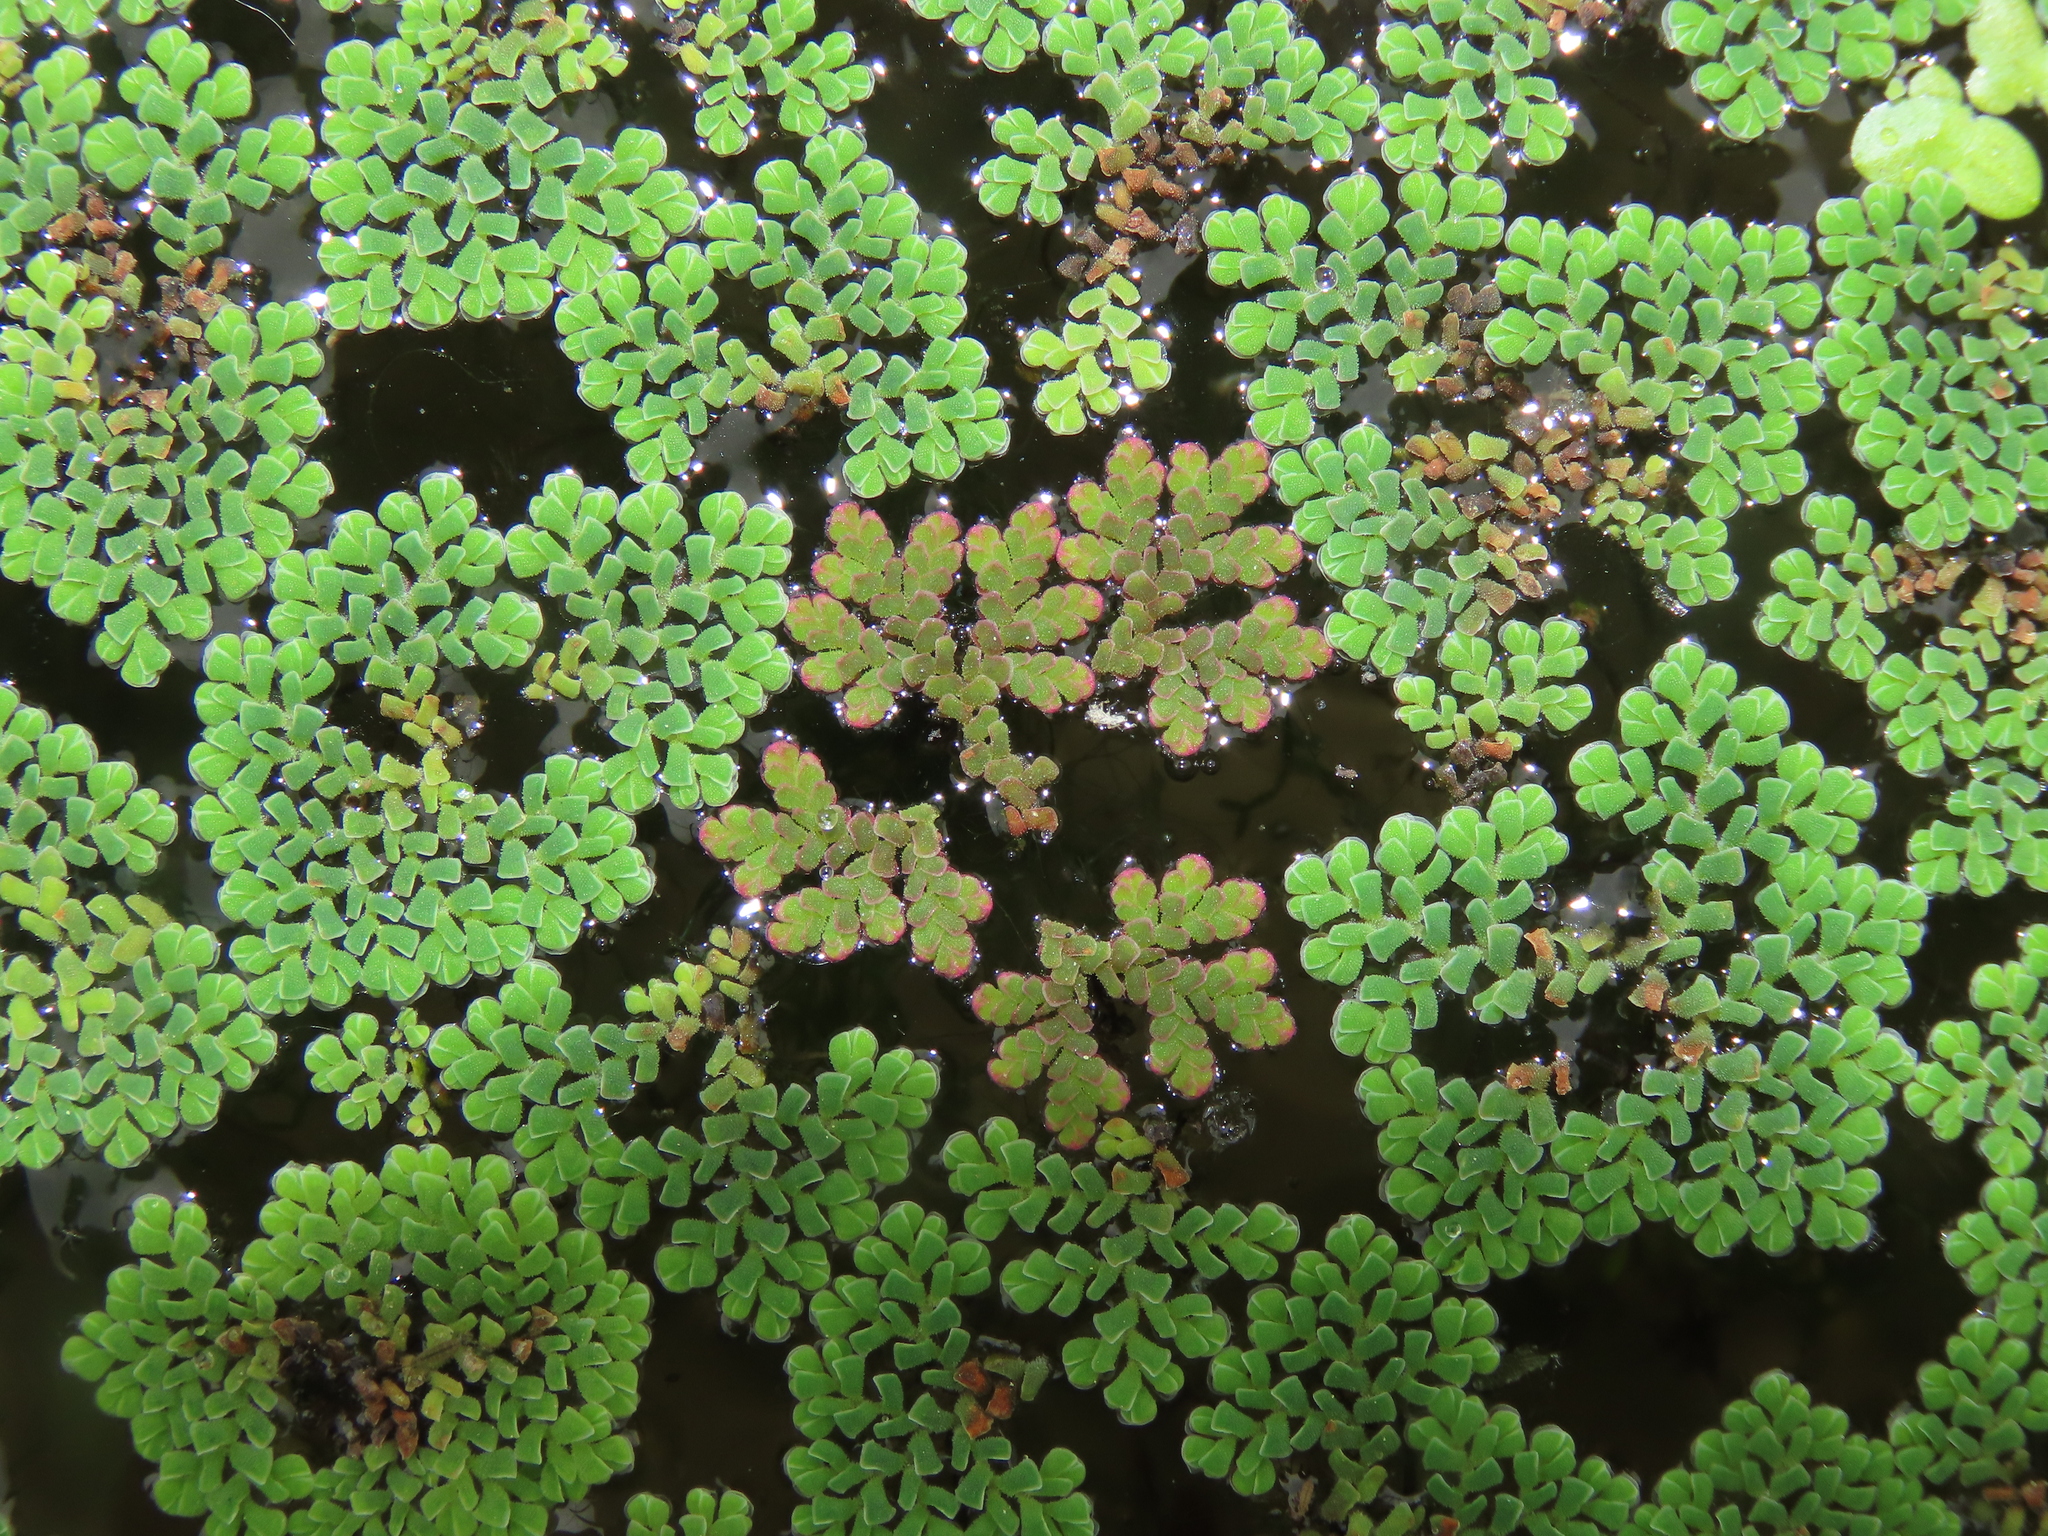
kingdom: Plantae
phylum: Tracheophyta
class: Polypodiopsida
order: Salviniales
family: Salviniaceae
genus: Azolla
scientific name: Azolla caroliniana
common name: Carolina mosquitofern
